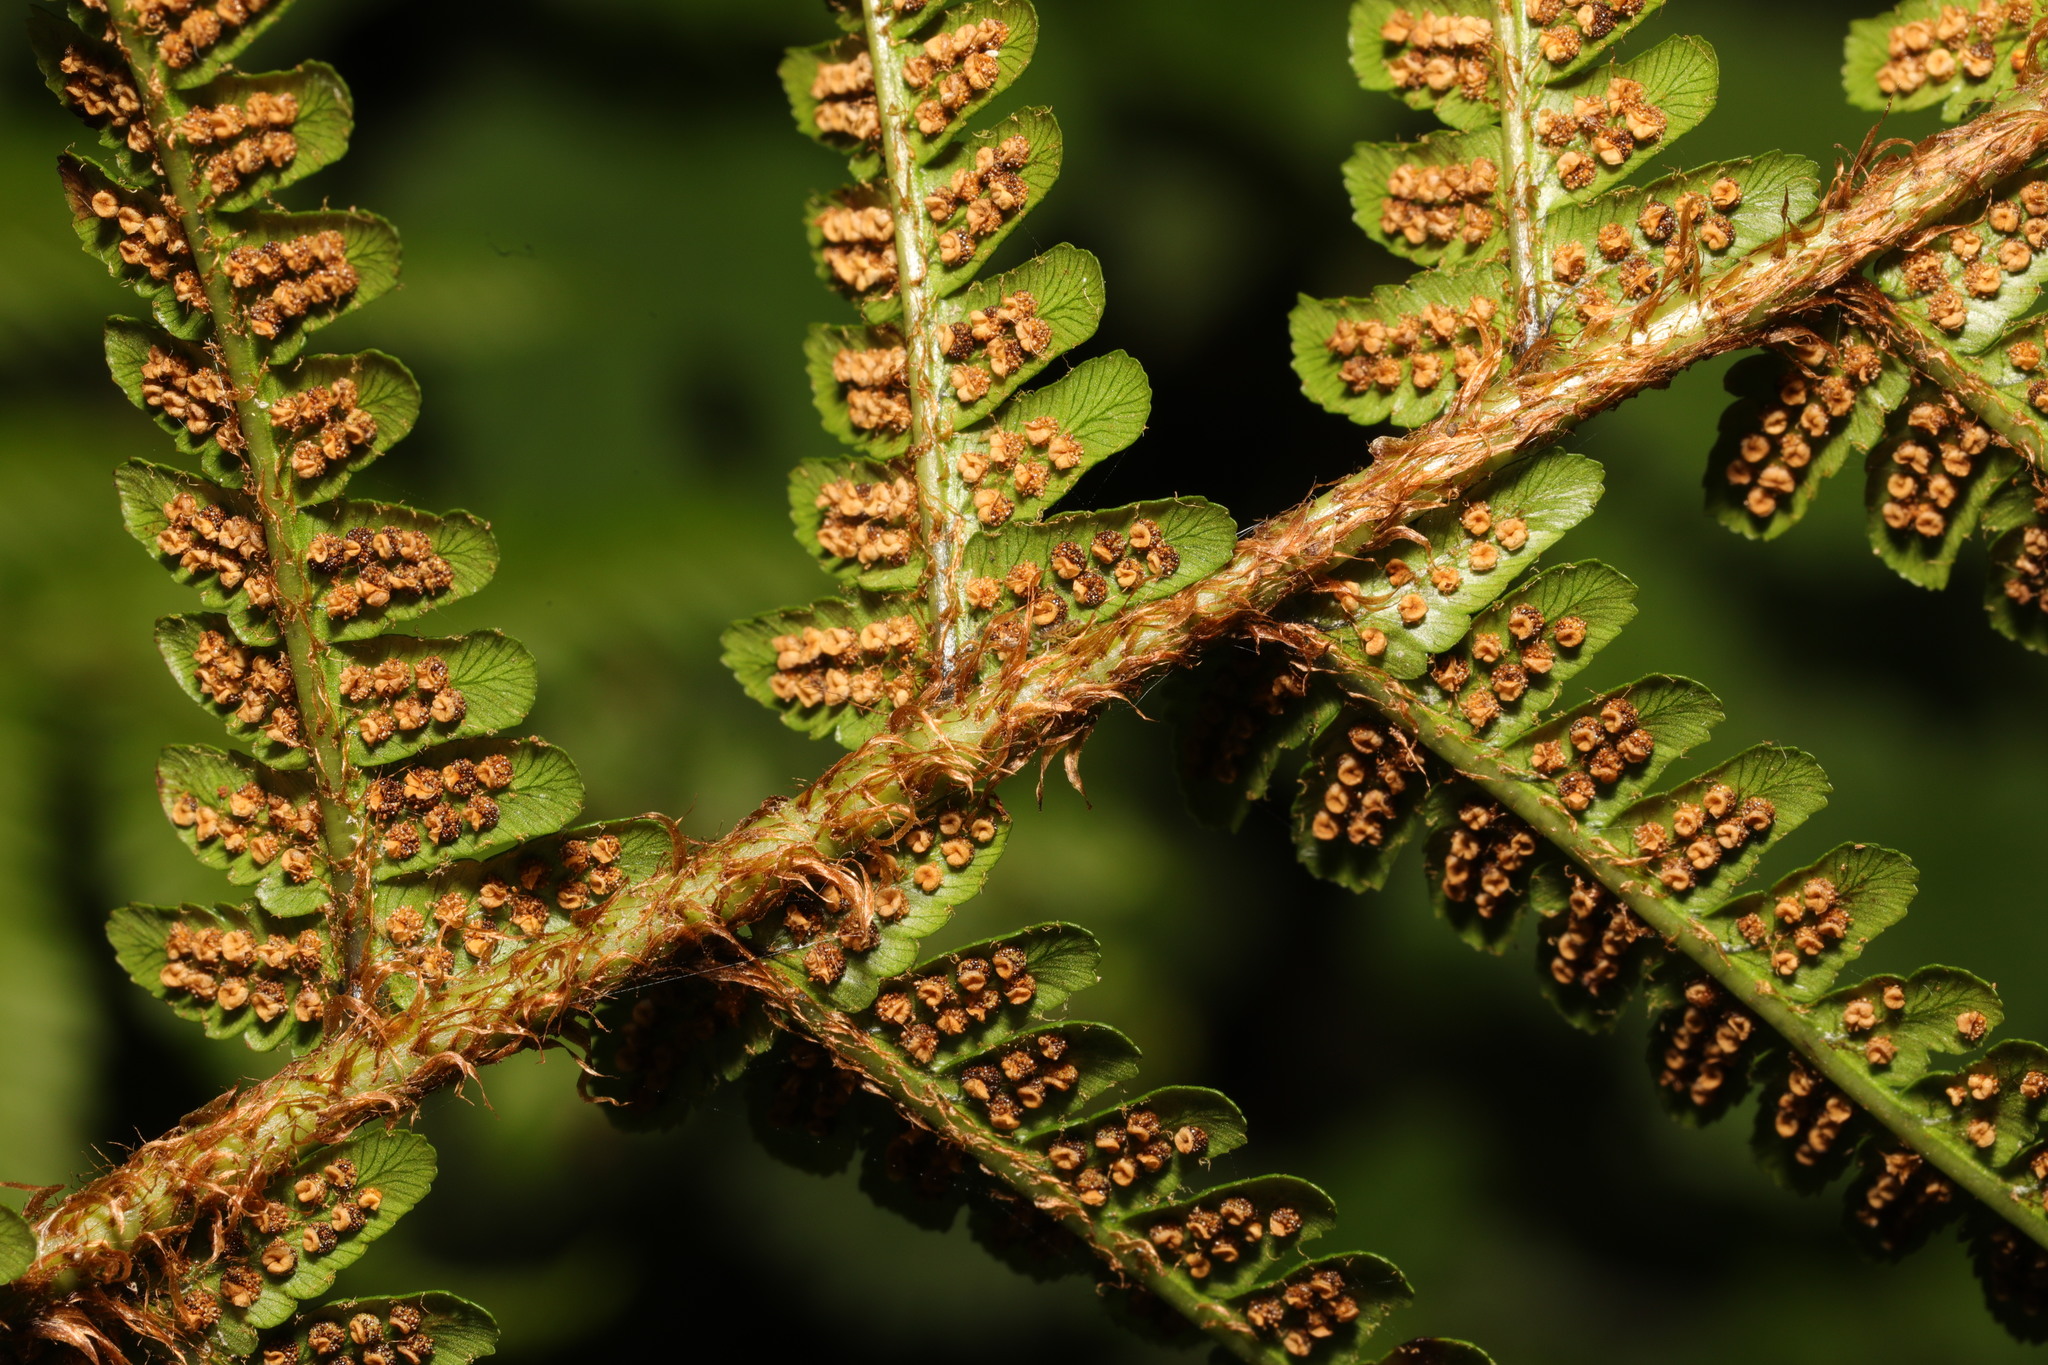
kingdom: Plantae
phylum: Tracheophyta
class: Polypodiopsida
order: Polypodiales
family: Dryopteridaceae
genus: Dryopteris
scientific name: Dryopteris affinis
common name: Scaly male fern
